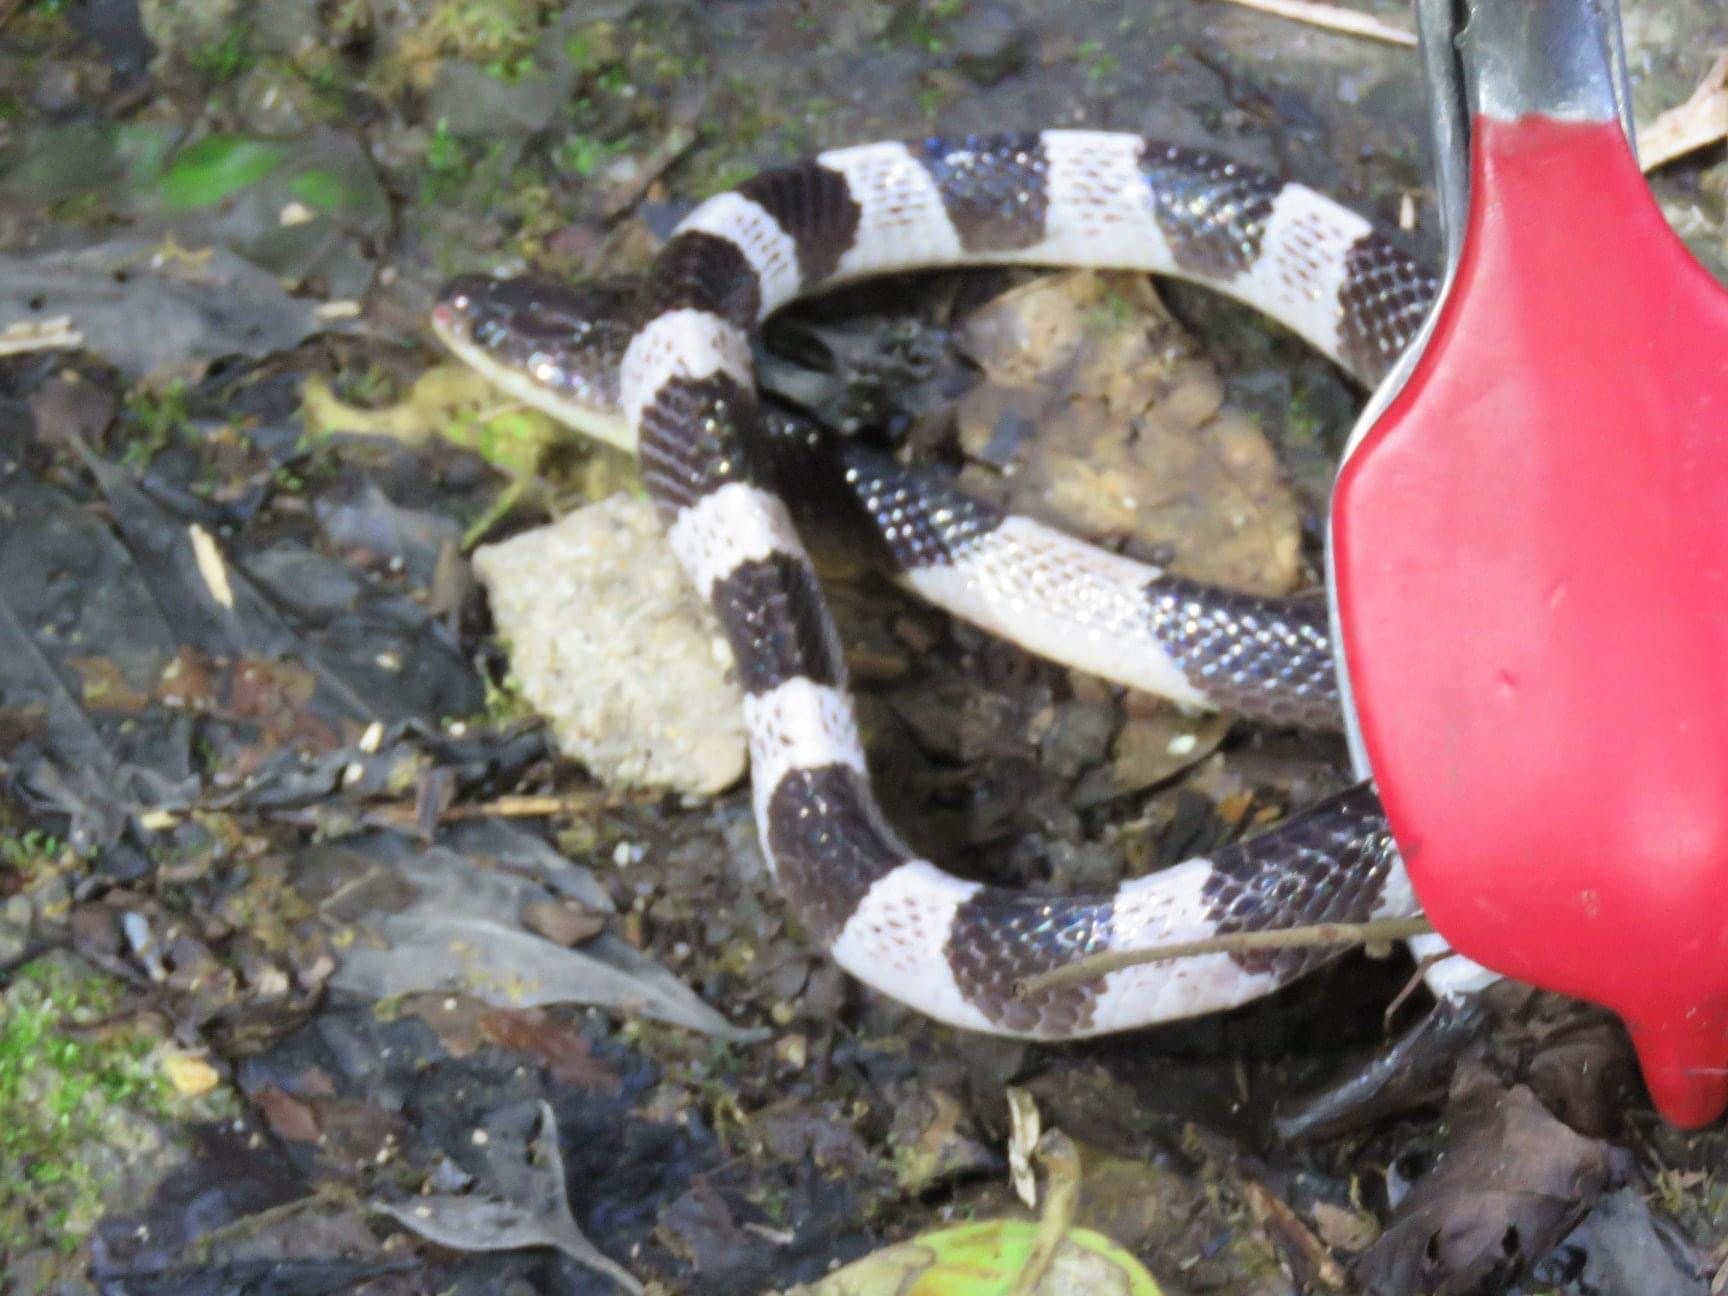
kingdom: Animalia
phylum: Chordata
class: Squamata
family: Elapidae
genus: Bungarus
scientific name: Bungarus candidus
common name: Blue krait/malayan krait
